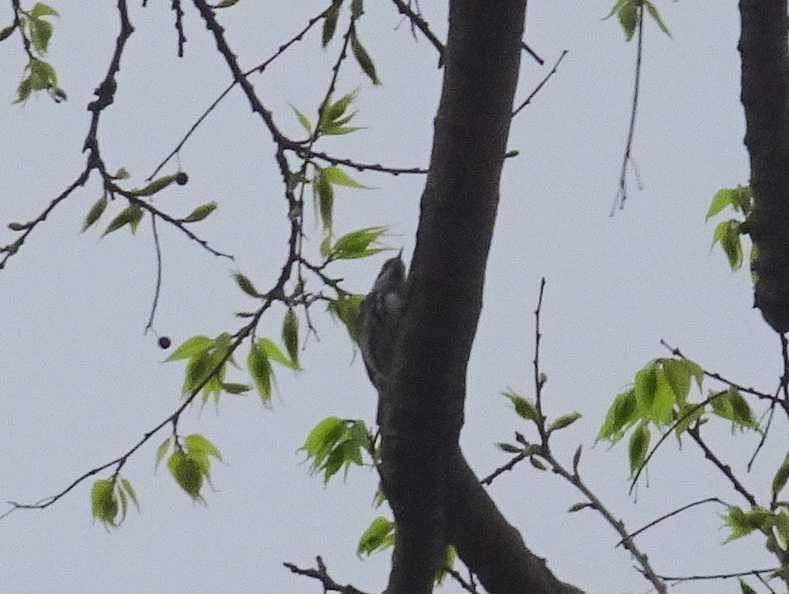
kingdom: Animalia
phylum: Chordata
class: Aves
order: Passeriformes
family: Parulidae
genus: Mniotilta
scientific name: Mniotilta varia
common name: Black-and-white warbler
